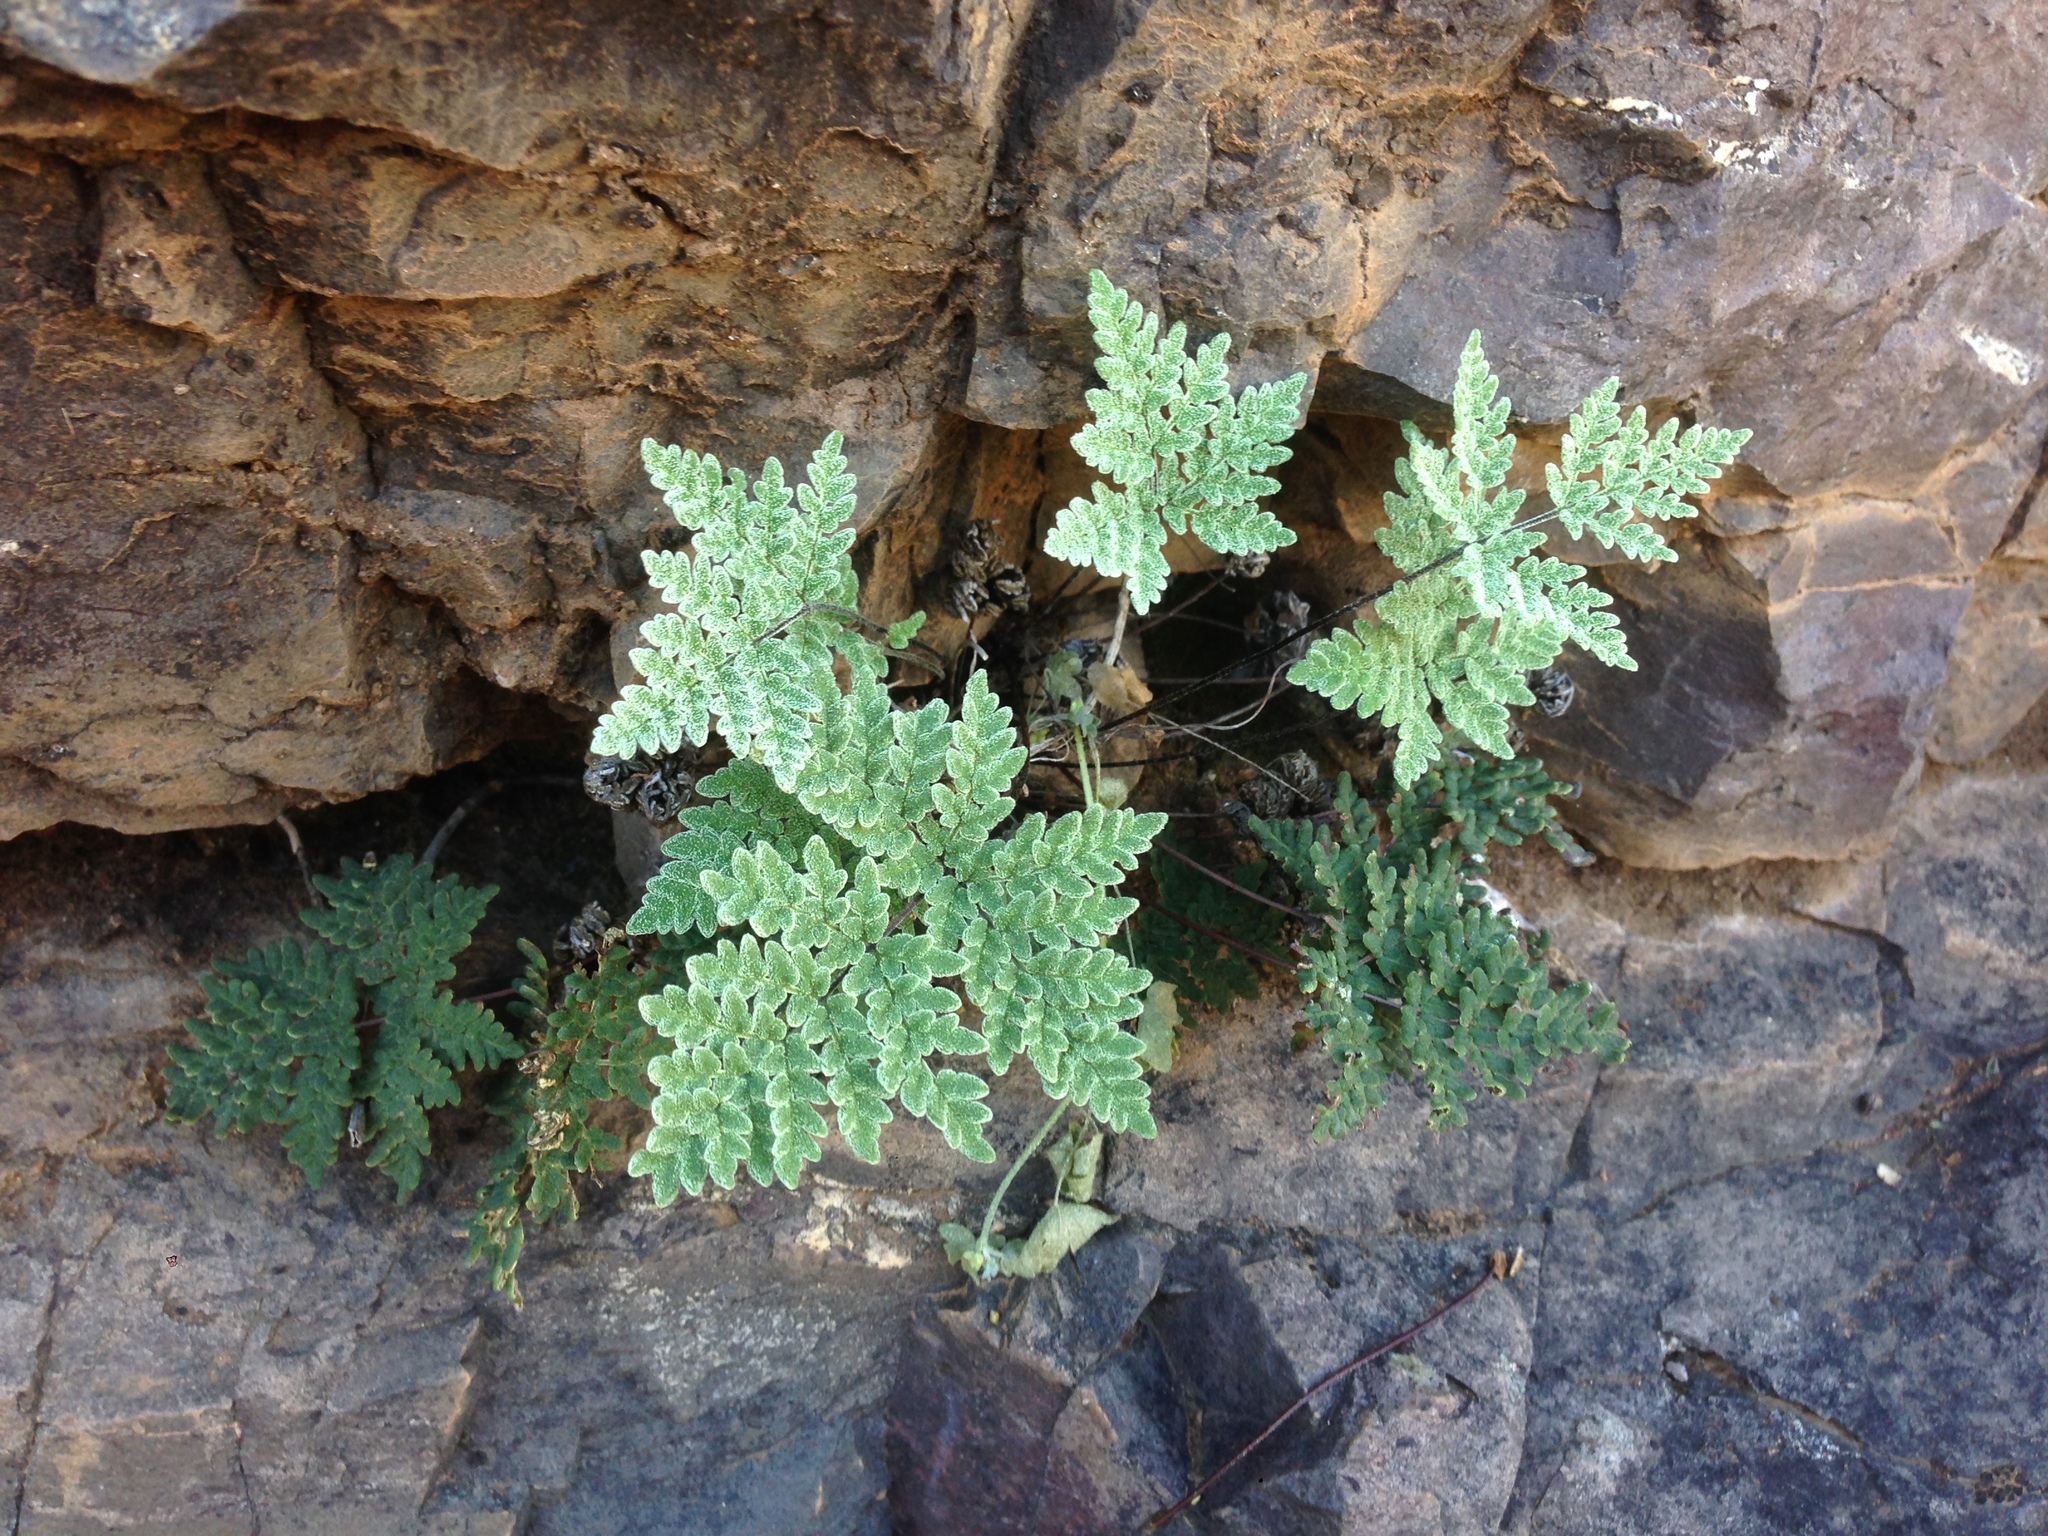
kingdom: Plantae
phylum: Tracheophyta
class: Polypodiopsida
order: Polypodiales
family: Pteridaceae
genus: Notholaena
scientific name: Notholaena californica
